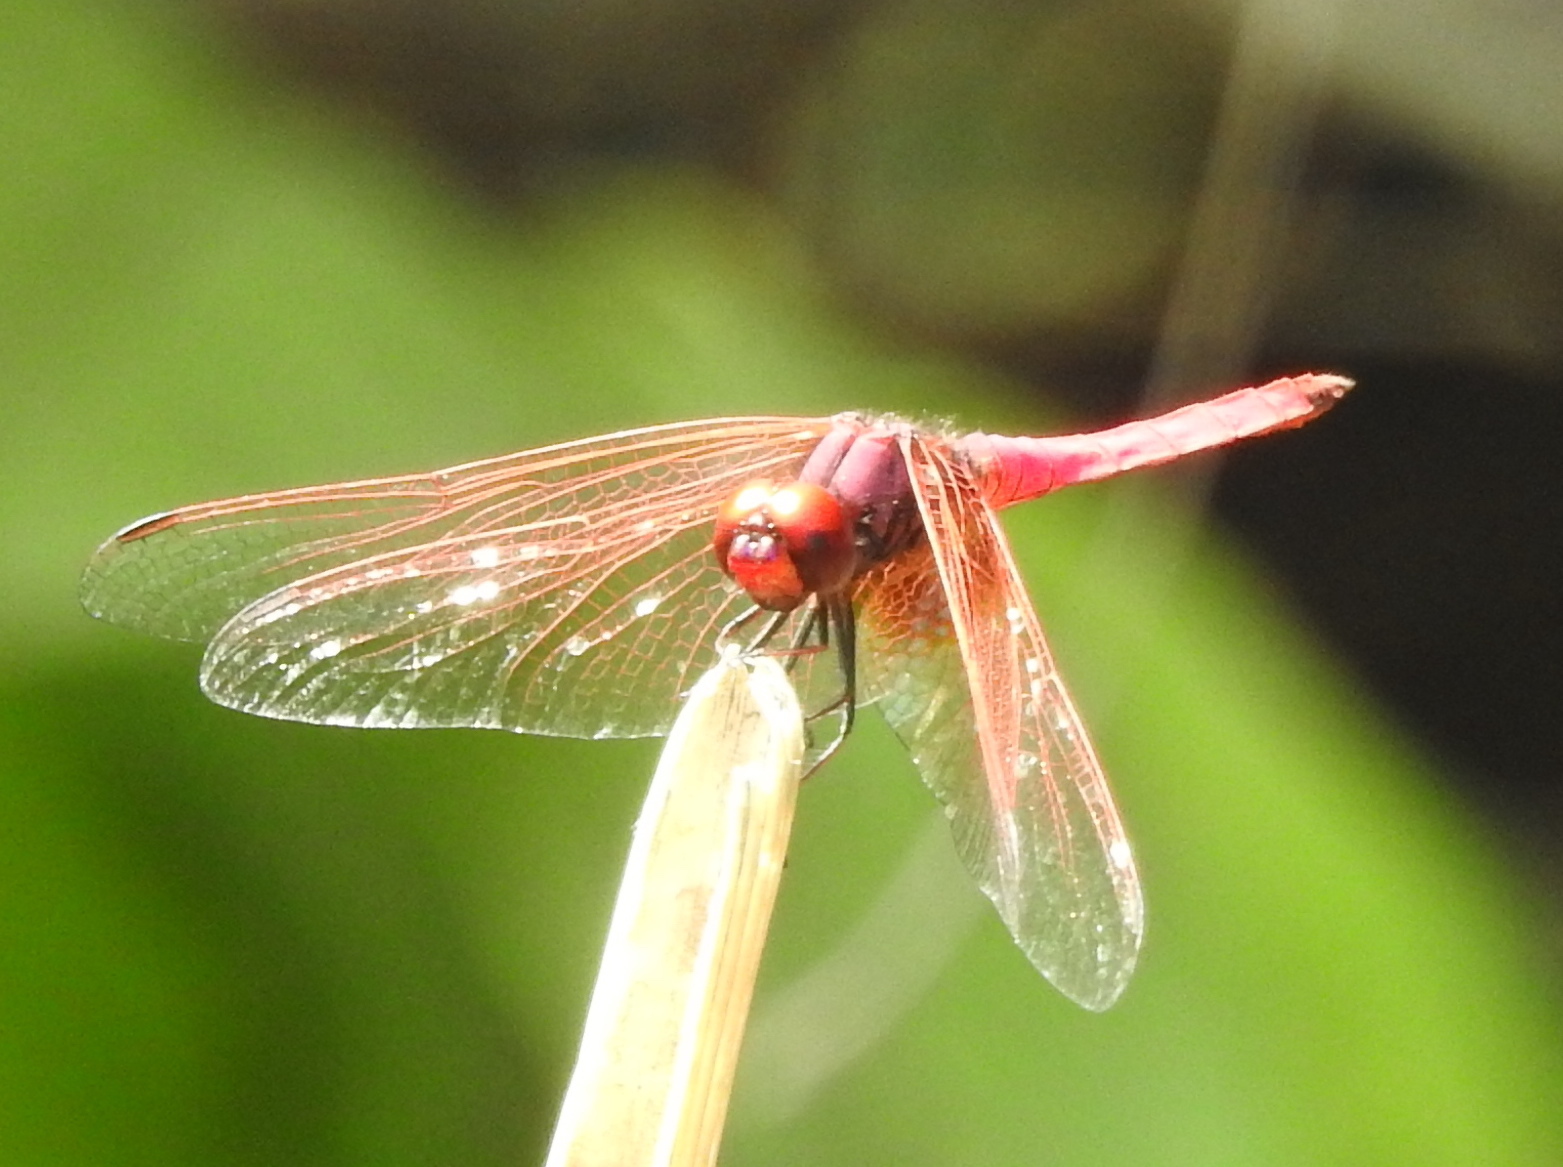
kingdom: Animalia
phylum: Arthropoda
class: Insecta
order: Odonata
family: Libellulidae
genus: Trithemis
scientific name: Trithemis aurora
